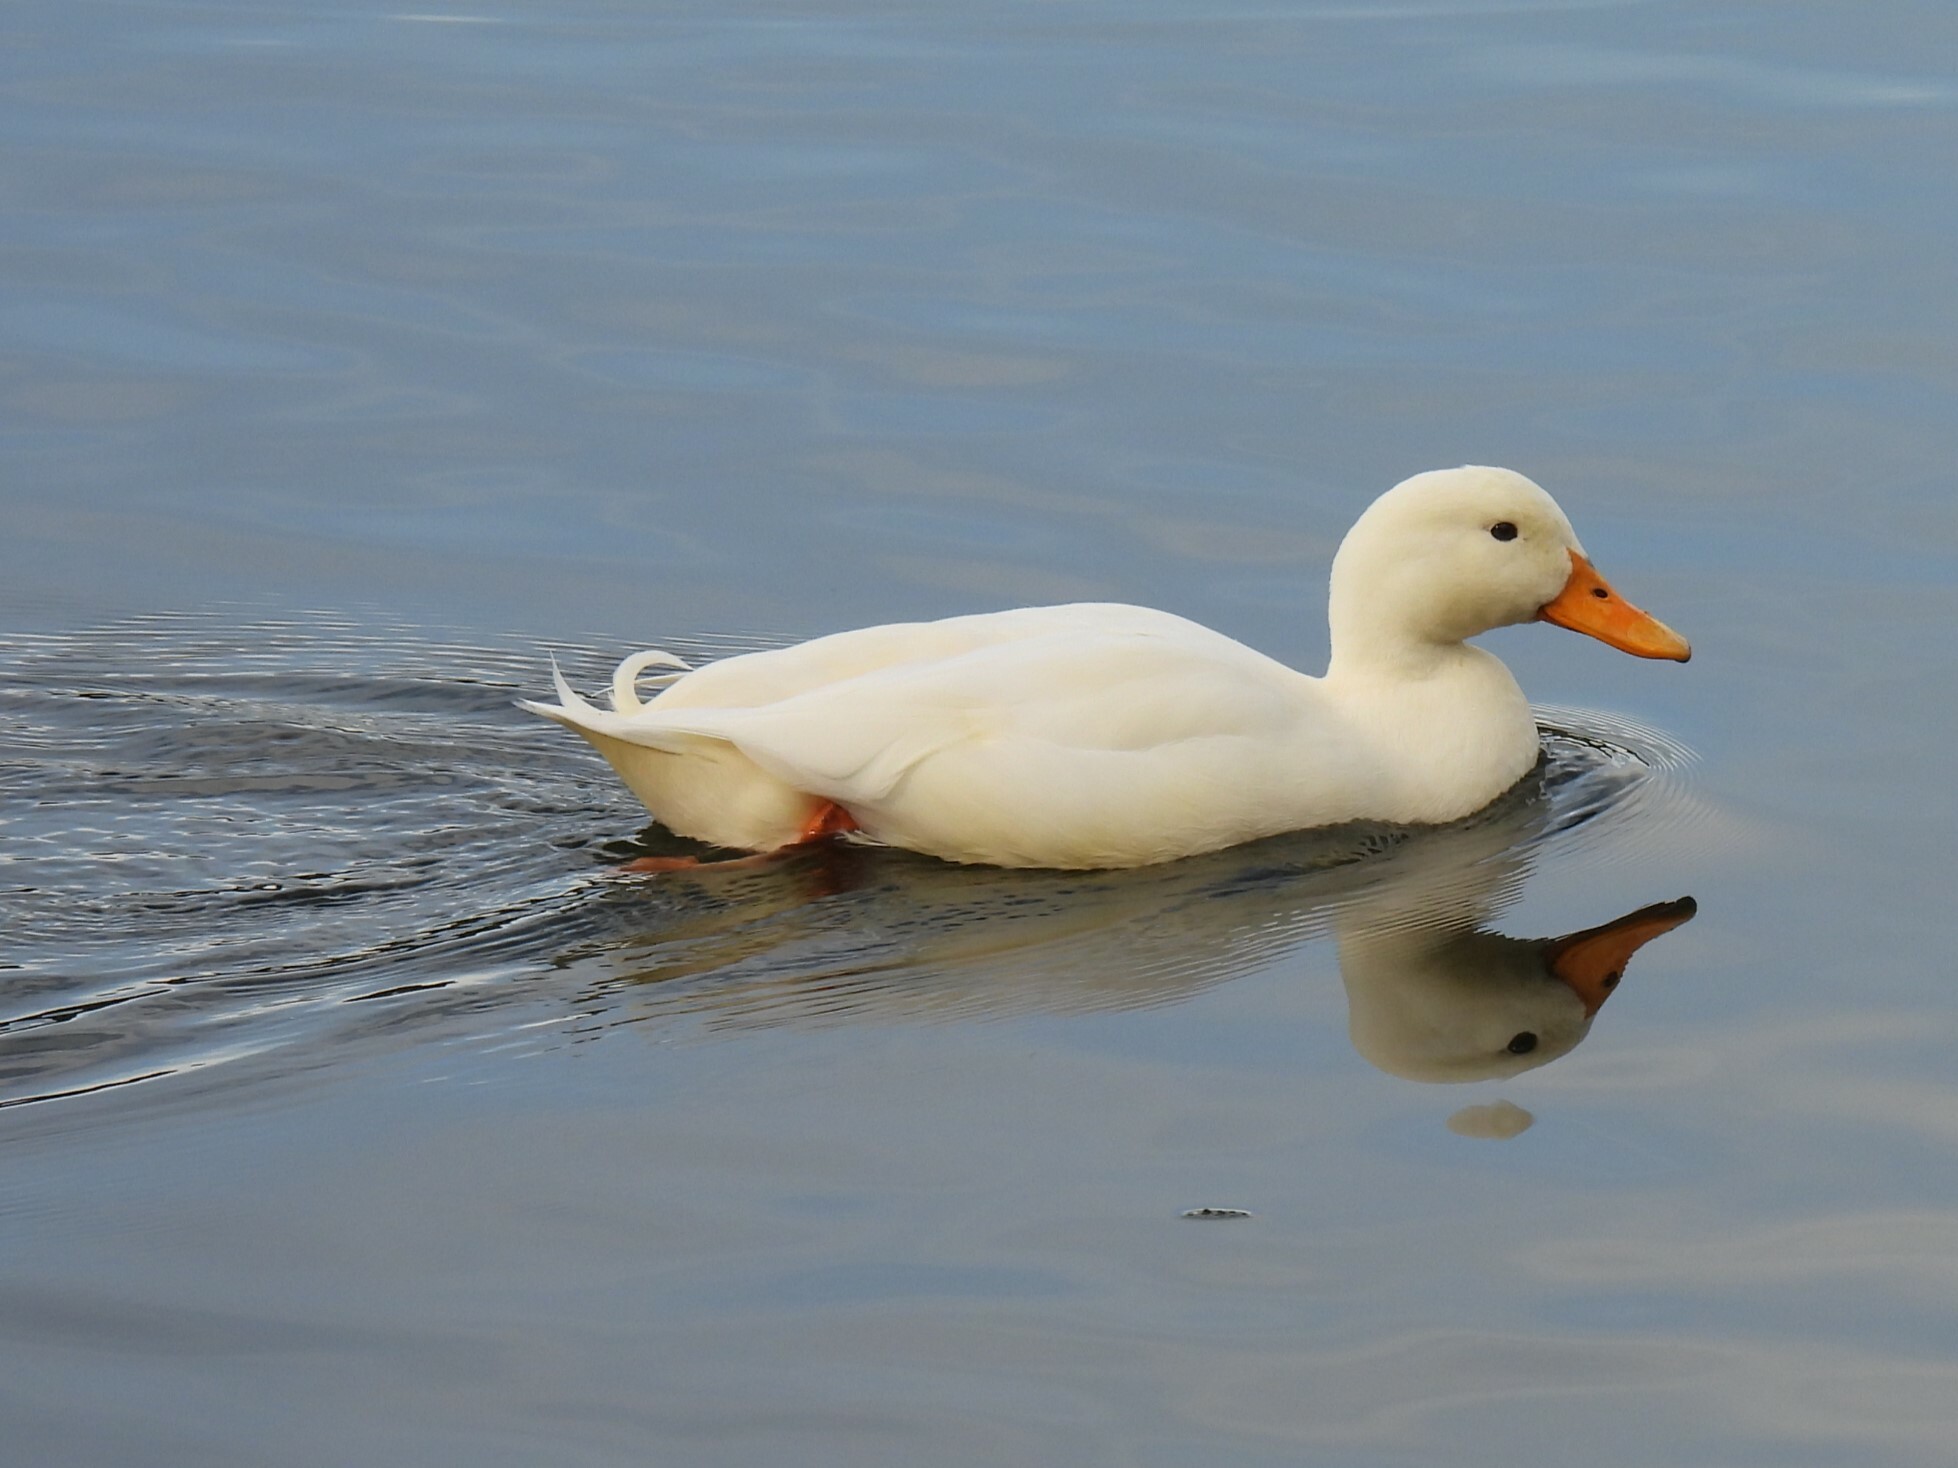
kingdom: Animalia
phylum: Chordata
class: Aves
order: Anseriformes
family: Anatidae
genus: Anas
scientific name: Anas platyrhynchos
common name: Mallard
